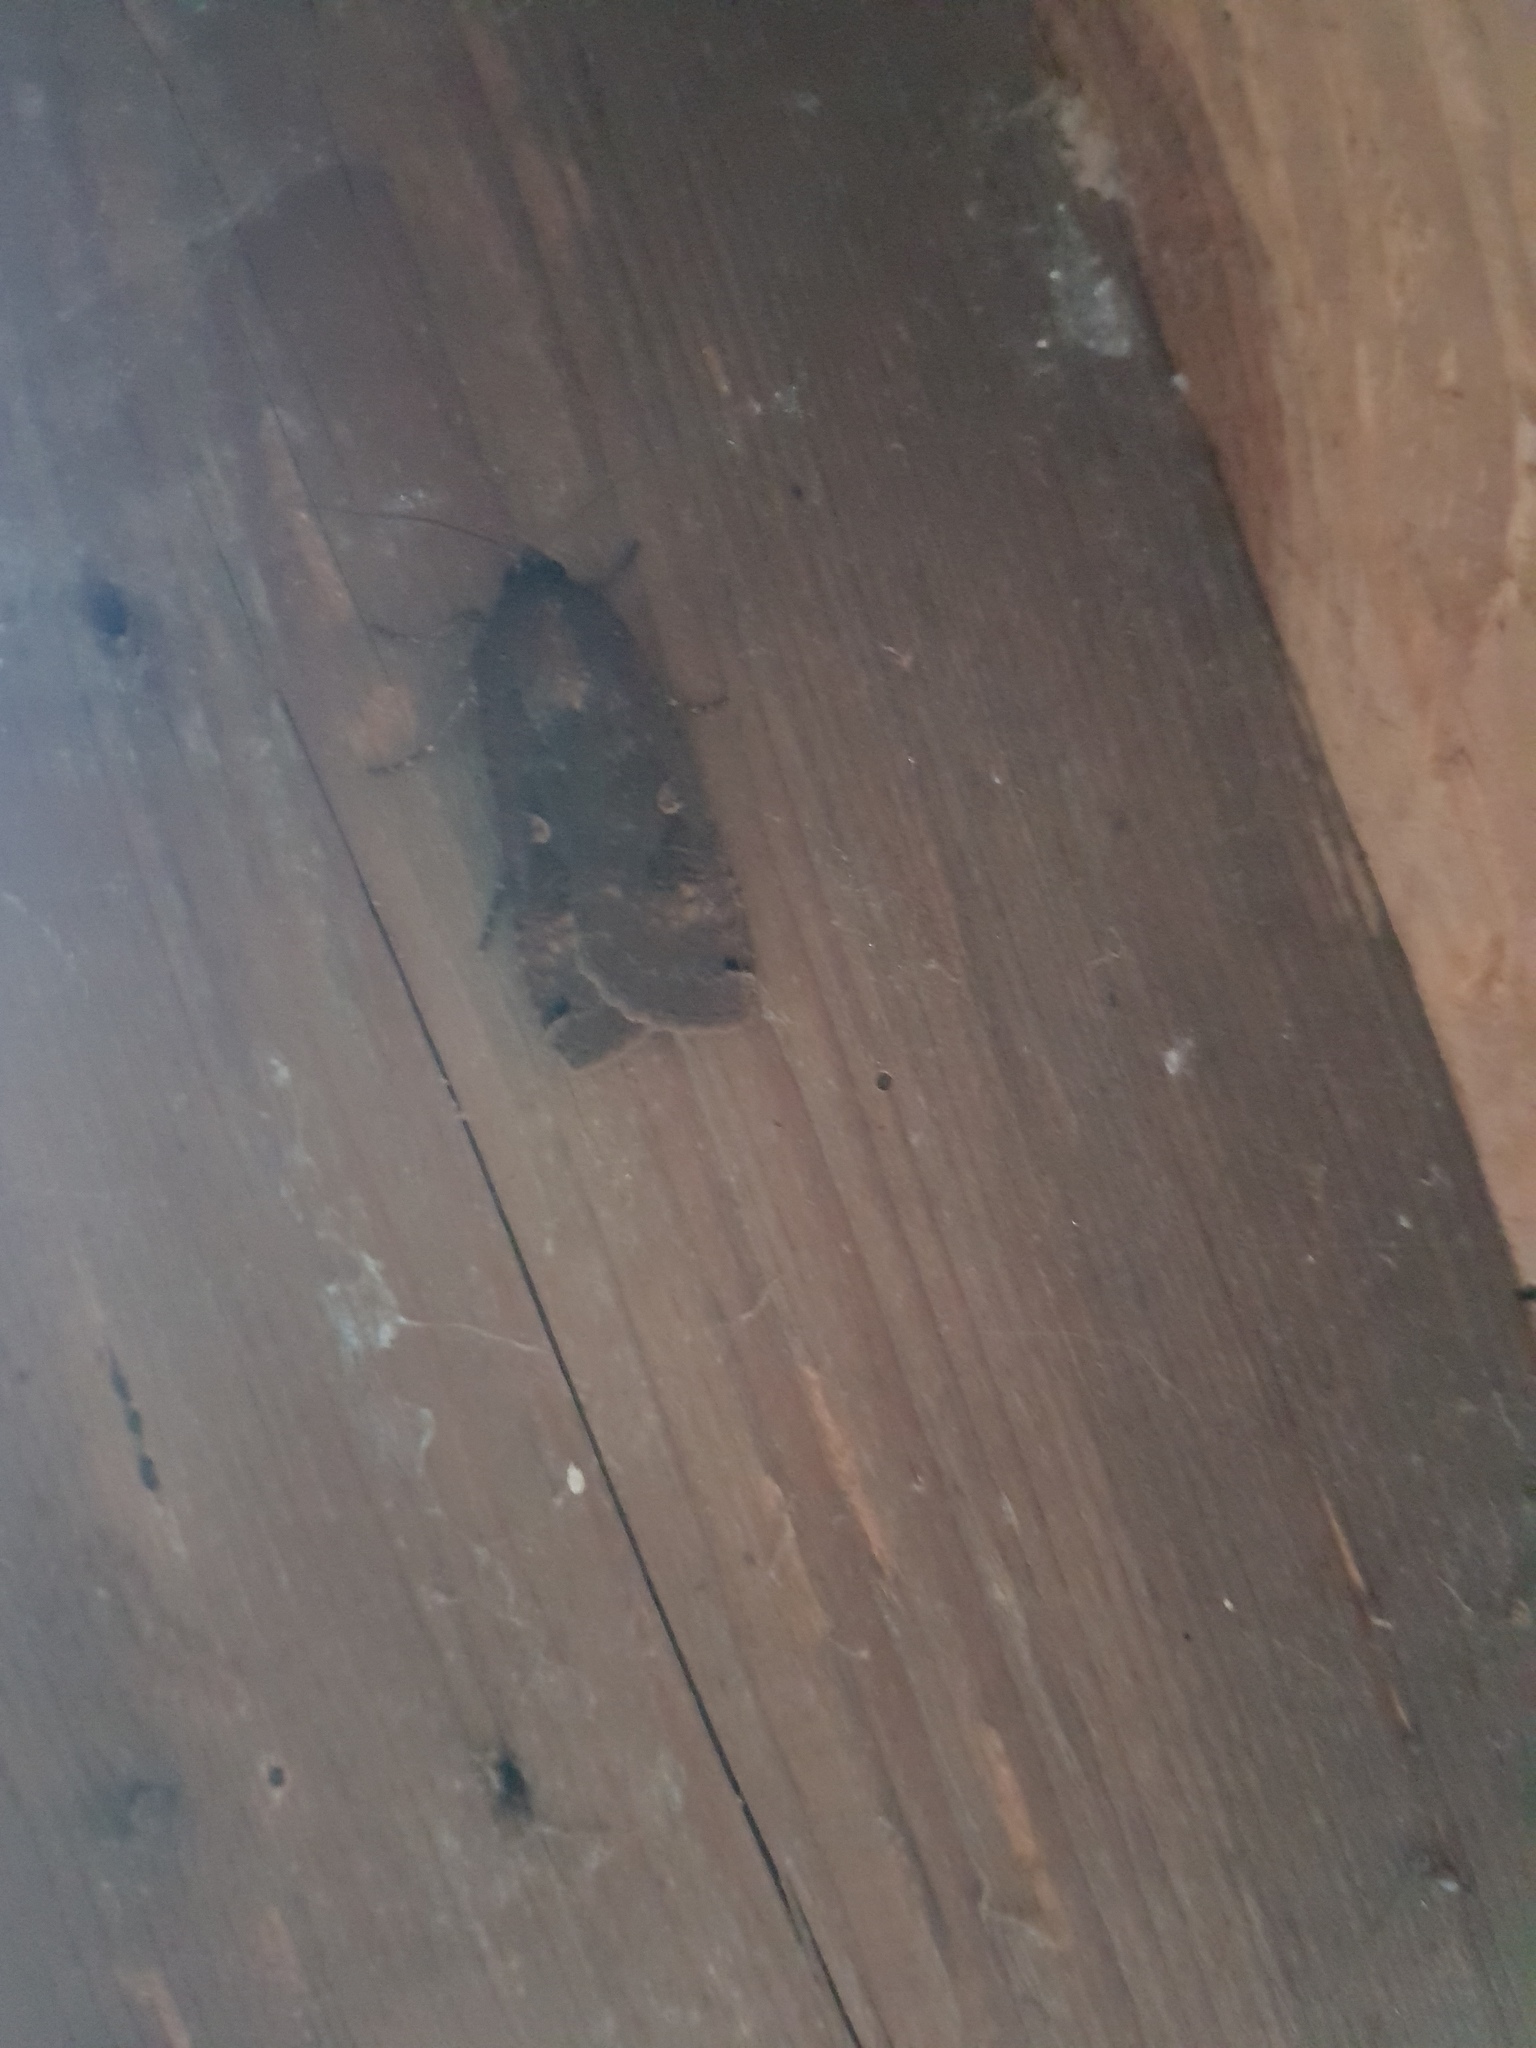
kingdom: Animalia
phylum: Arthropoda
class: Insecta
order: Lepidoptera
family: Noctuidae
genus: Noctua
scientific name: Noctua pronuba
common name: Large yellow underwing
